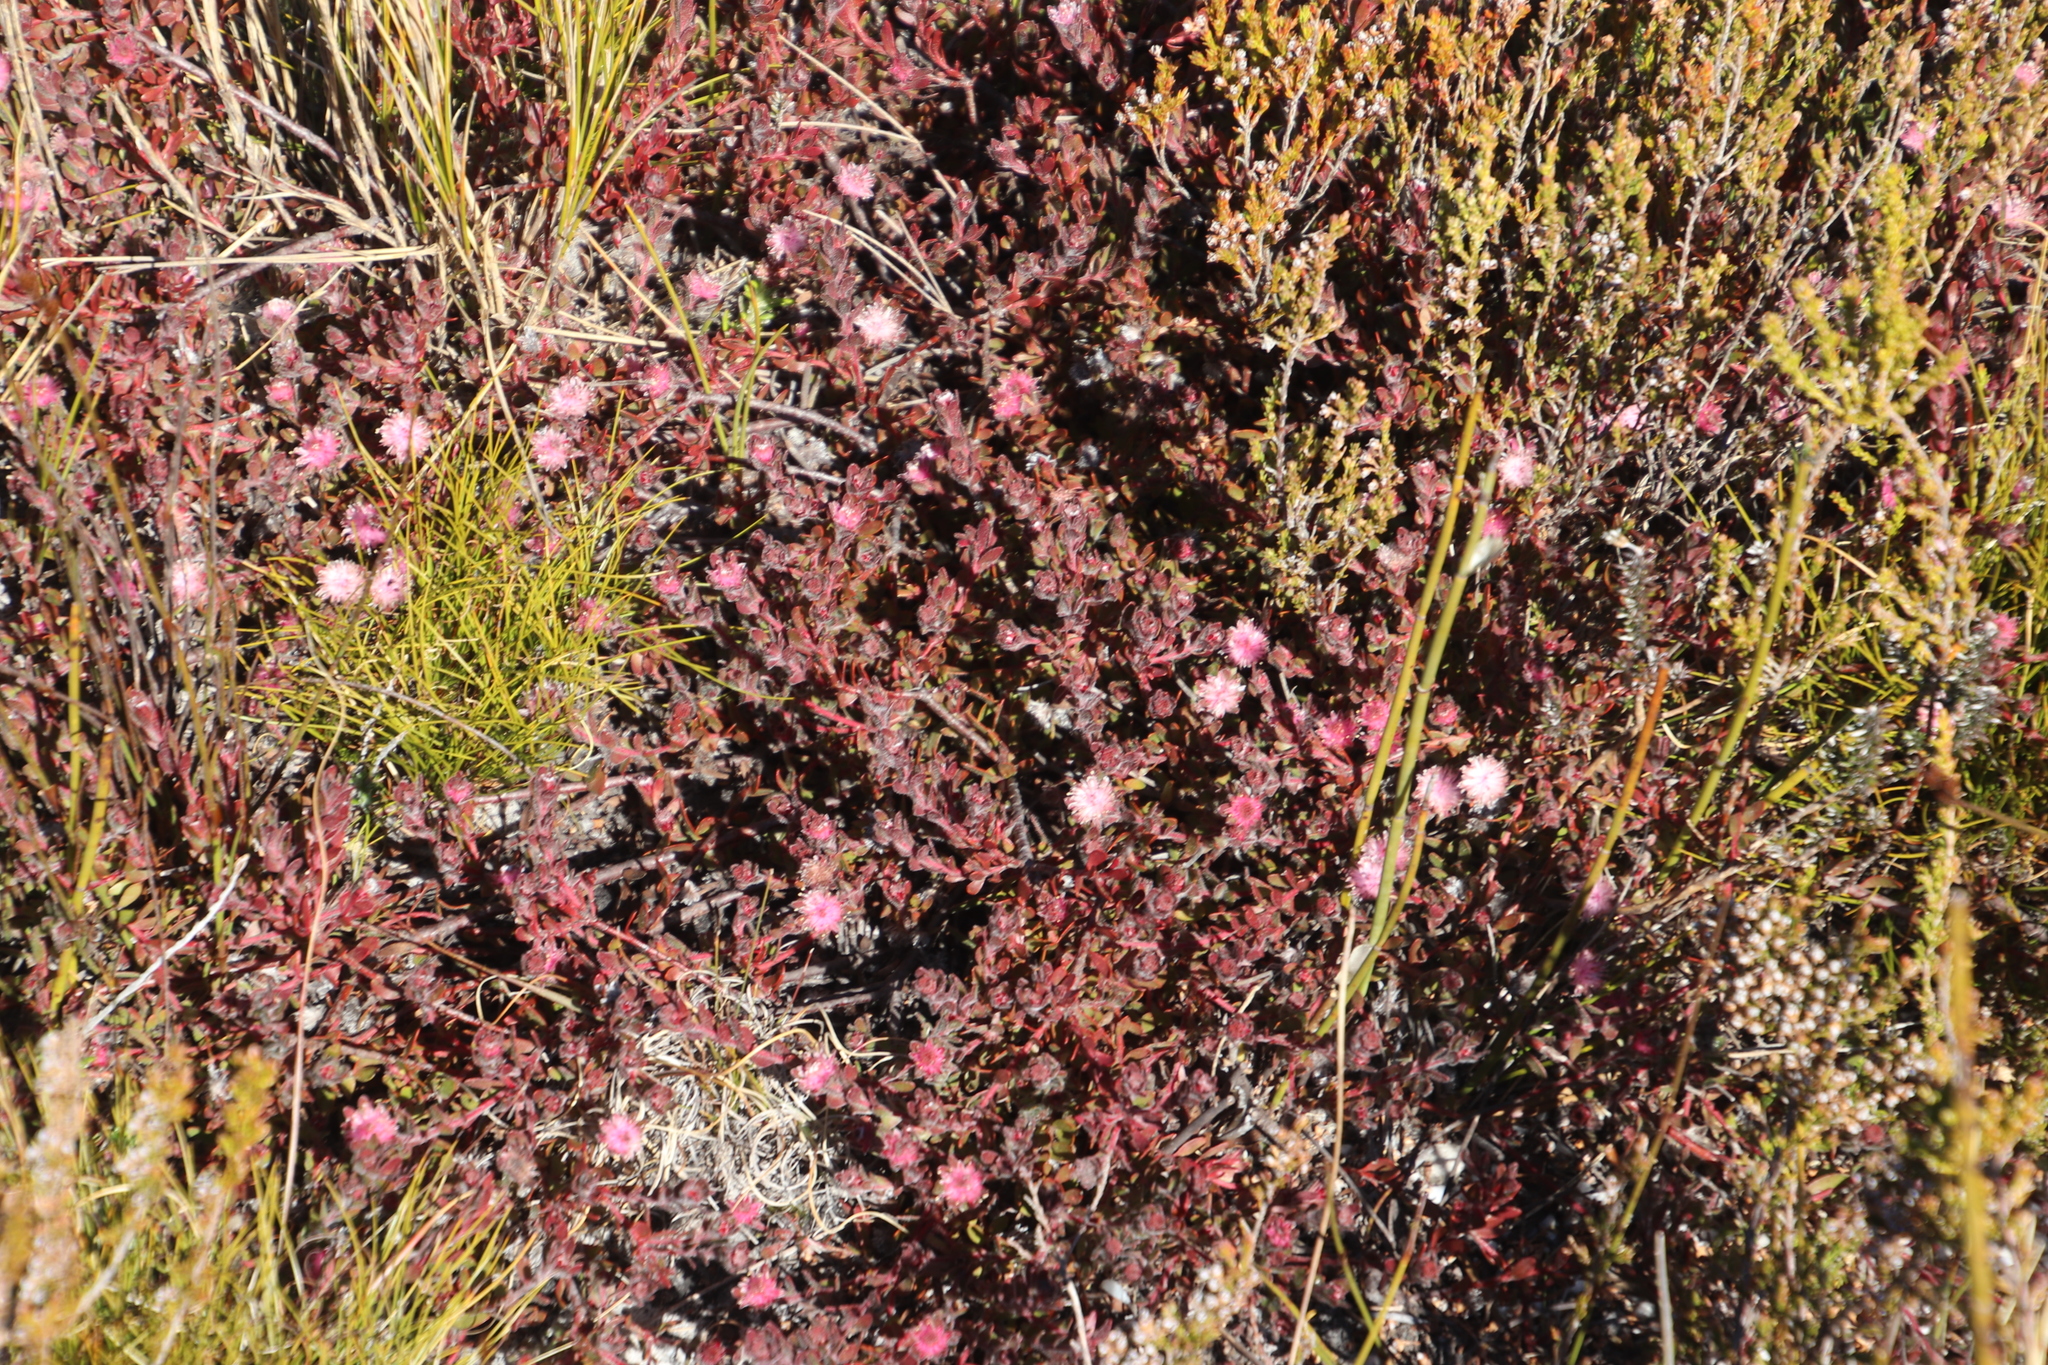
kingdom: Plantae
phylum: Tracheophyta
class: Magnoliopsida
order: Proteales
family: Proteaceae
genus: Diastella
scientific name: Diastella divaricata
